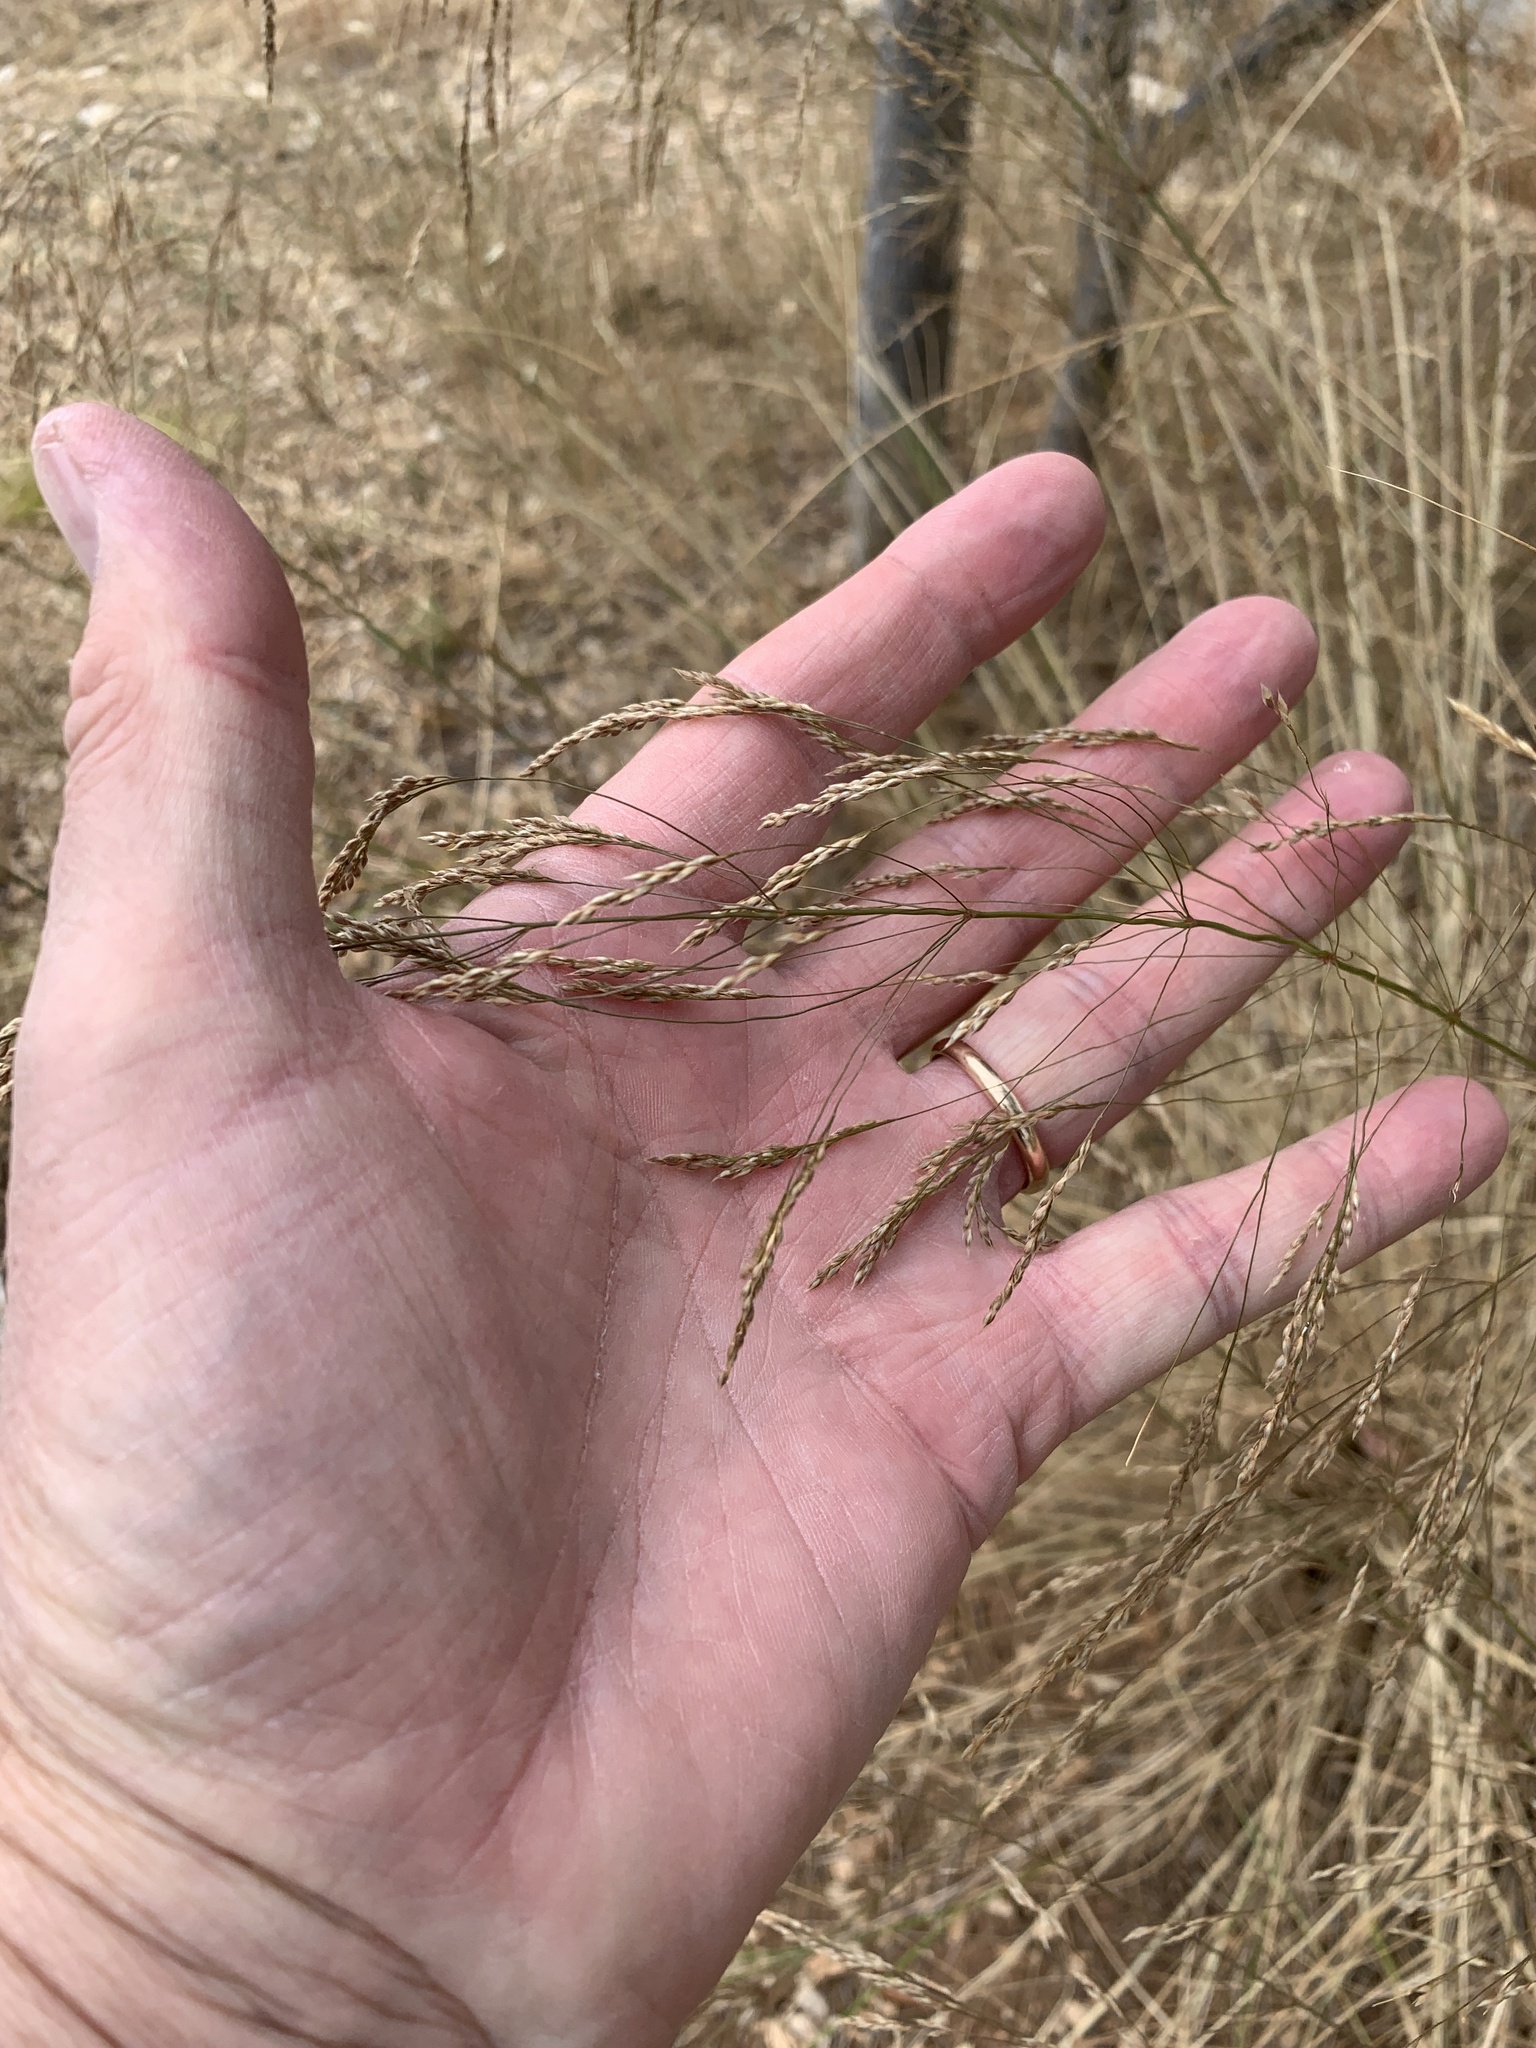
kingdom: Plantae
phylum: Tracheophyta
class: Liliopsida
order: Poales
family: Poaceae
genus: Oloptum
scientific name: Oloptum miliaceum
